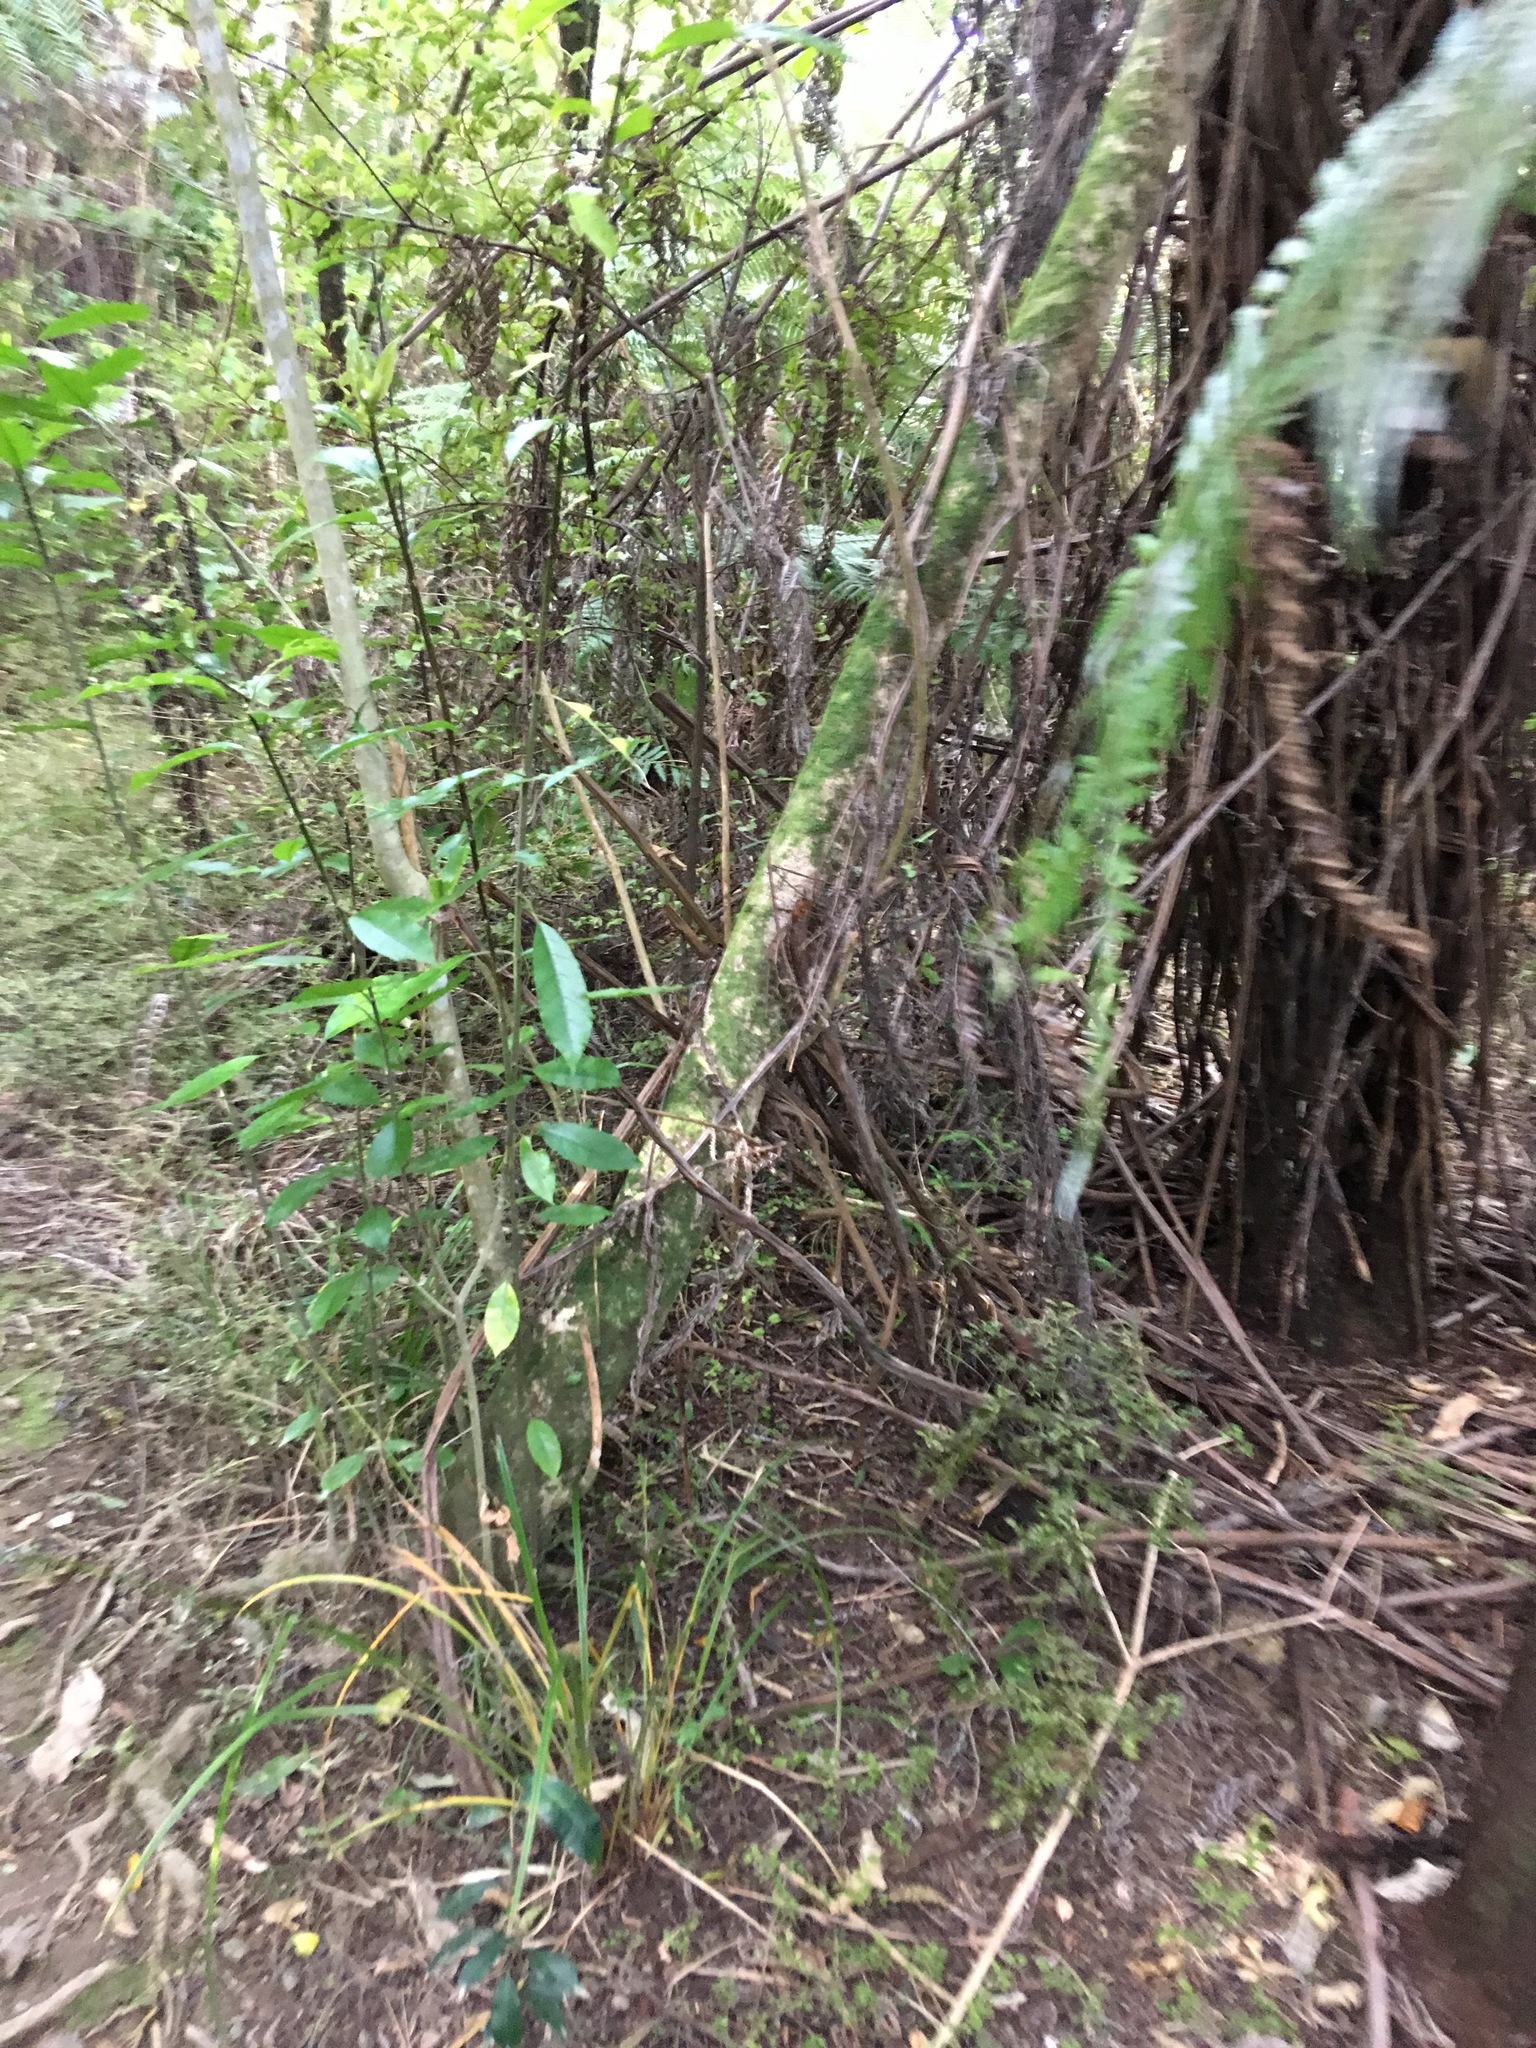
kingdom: Plantae
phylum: Tracheophyta
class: Magnoliopsida
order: Malpighiales
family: Violaceae
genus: Melicytus
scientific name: Melicytus ramiflorus
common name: Mahoe
